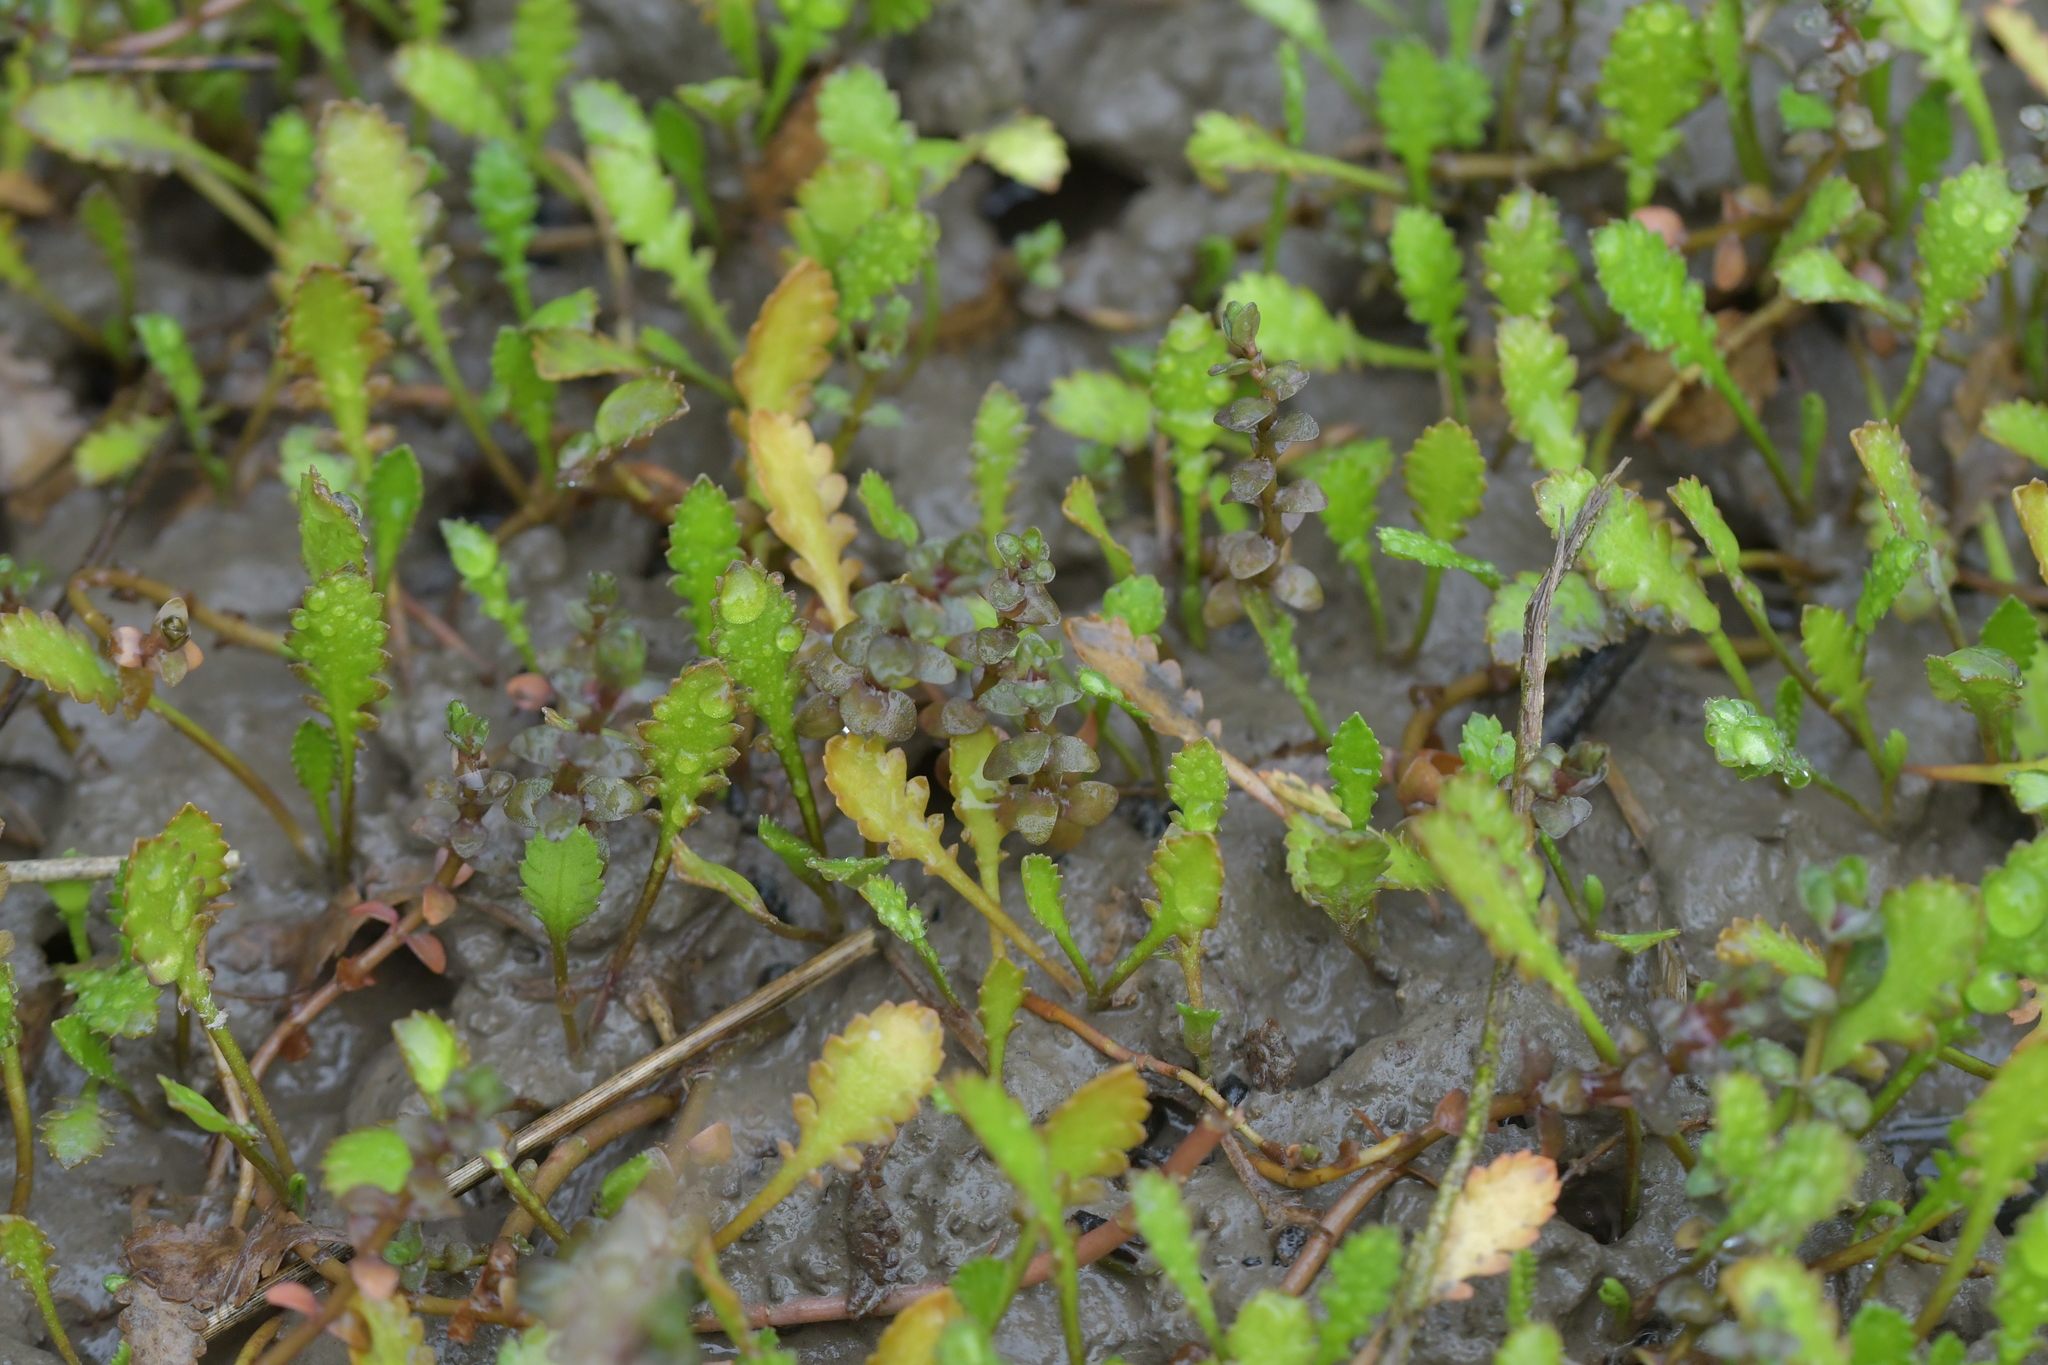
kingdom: Plantae
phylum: Tracheophyta
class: Magnoliopsida
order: Asterales
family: Asteraceae
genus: Leptinella
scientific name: Leptinella dioica
